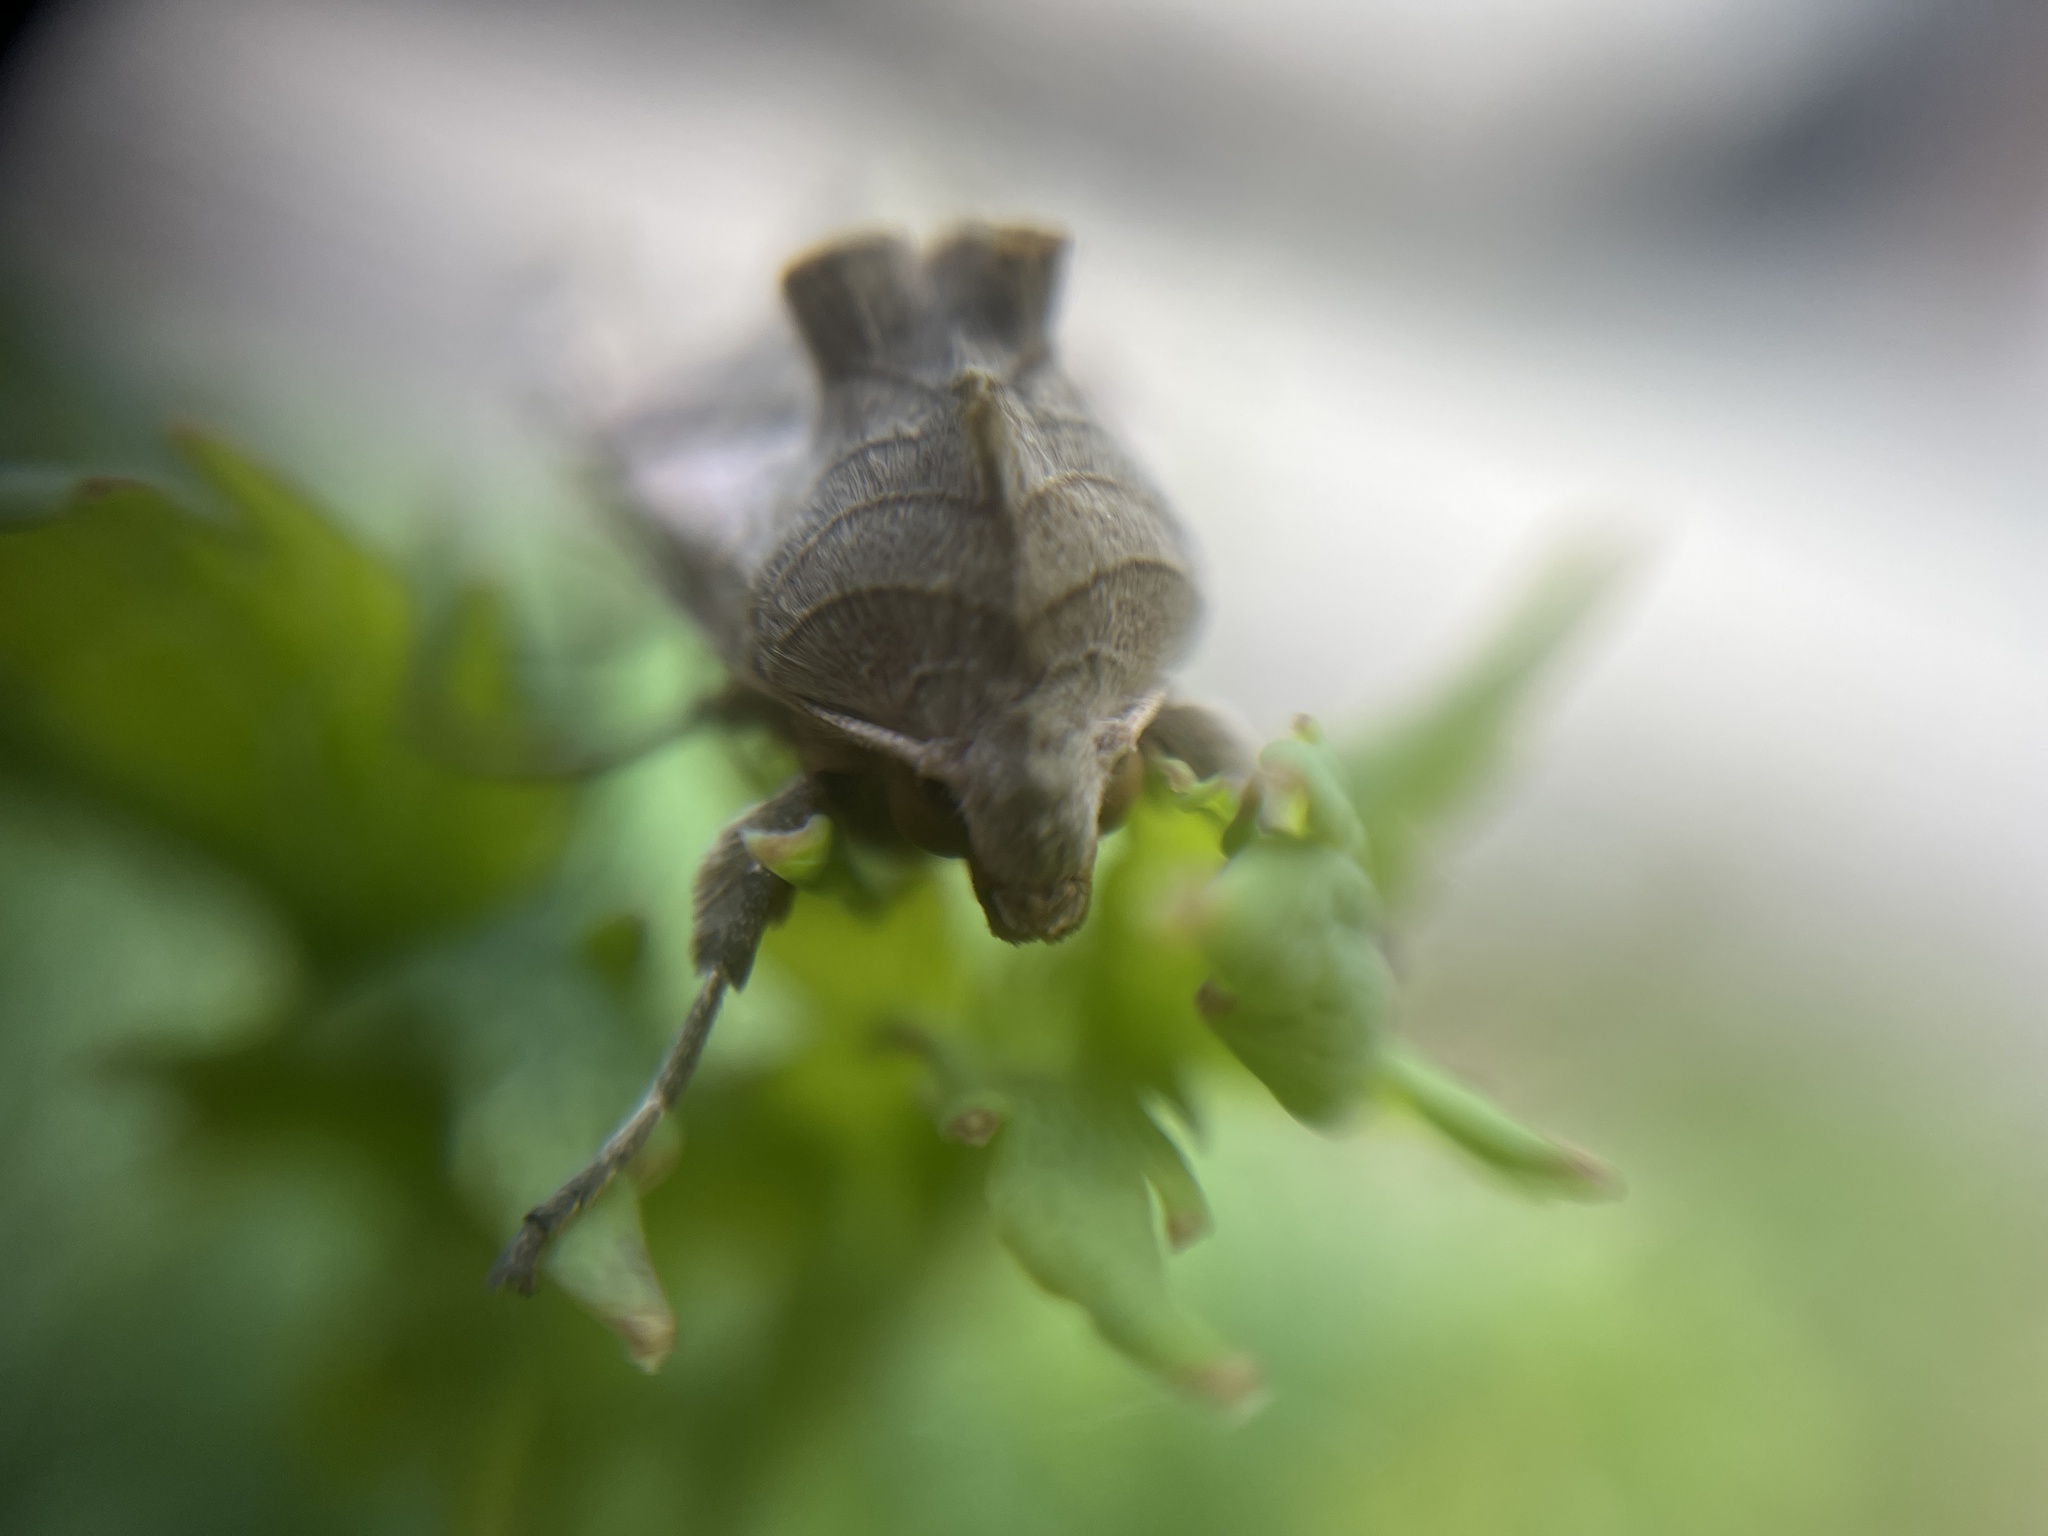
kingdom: Animalia
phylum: Arthropoda
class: Insecta
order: Lepidoptera
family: Noctuidae
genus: Phlogophora
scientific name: Phlogophora meticulosa
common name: Angle shades
